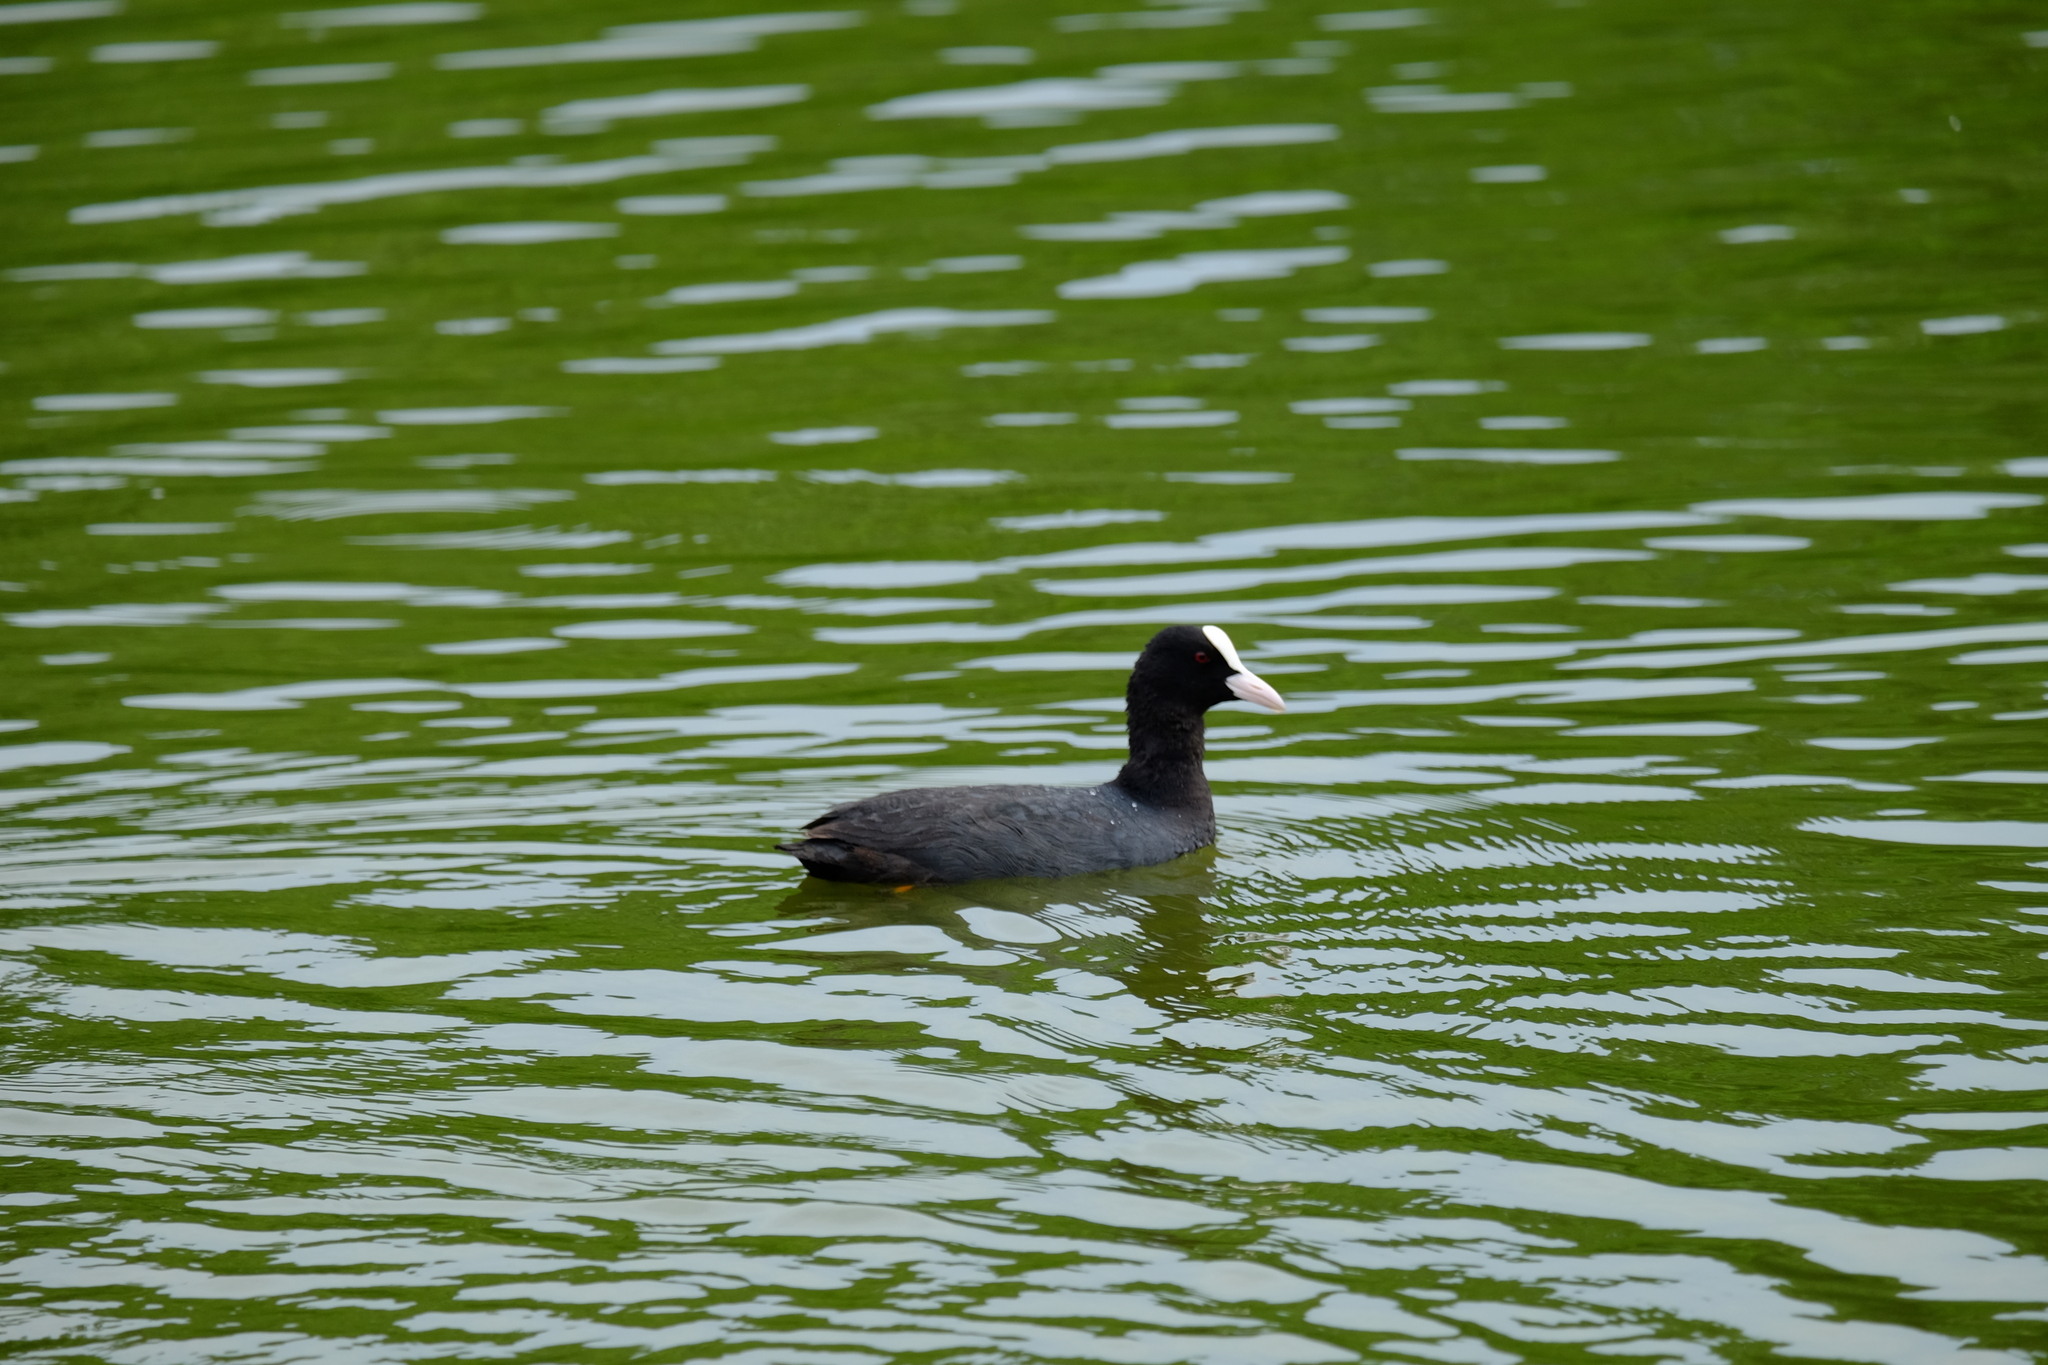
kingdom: Animalia
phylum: Chordata
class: Aves
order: Gruiformes
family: Rallidae
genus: Fulica
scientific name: Fulica atra
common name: Eurasian coot
